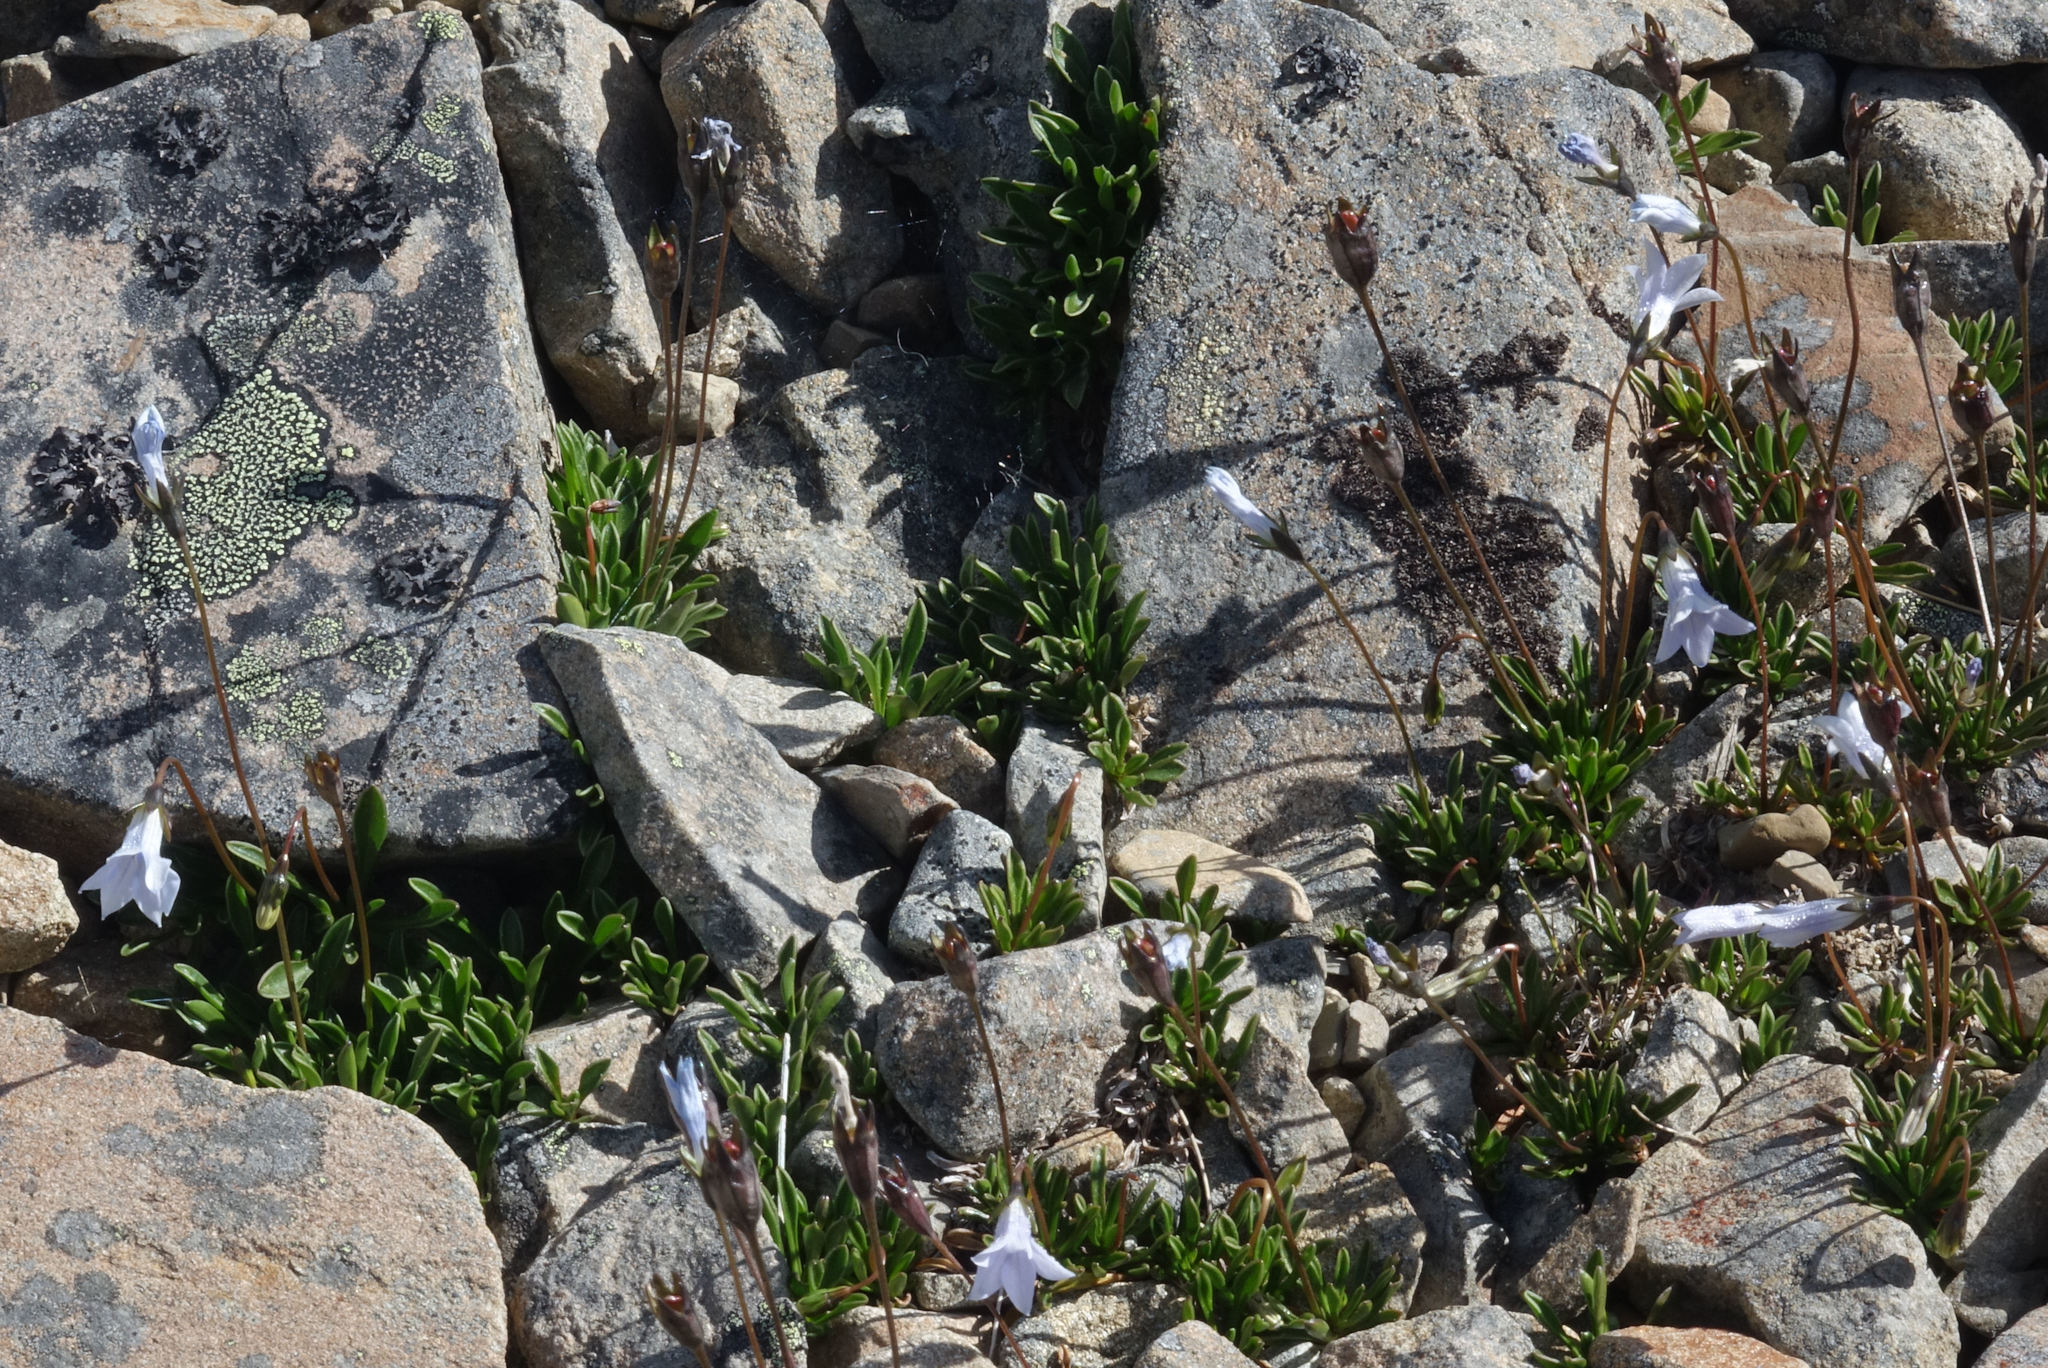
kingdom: Plantae
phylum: Tracheophyta
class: Magnoliopsida
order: Asterales
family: Campanulaceae
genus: Wahlenbergia
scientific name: Wahlenbergia albomarginata
